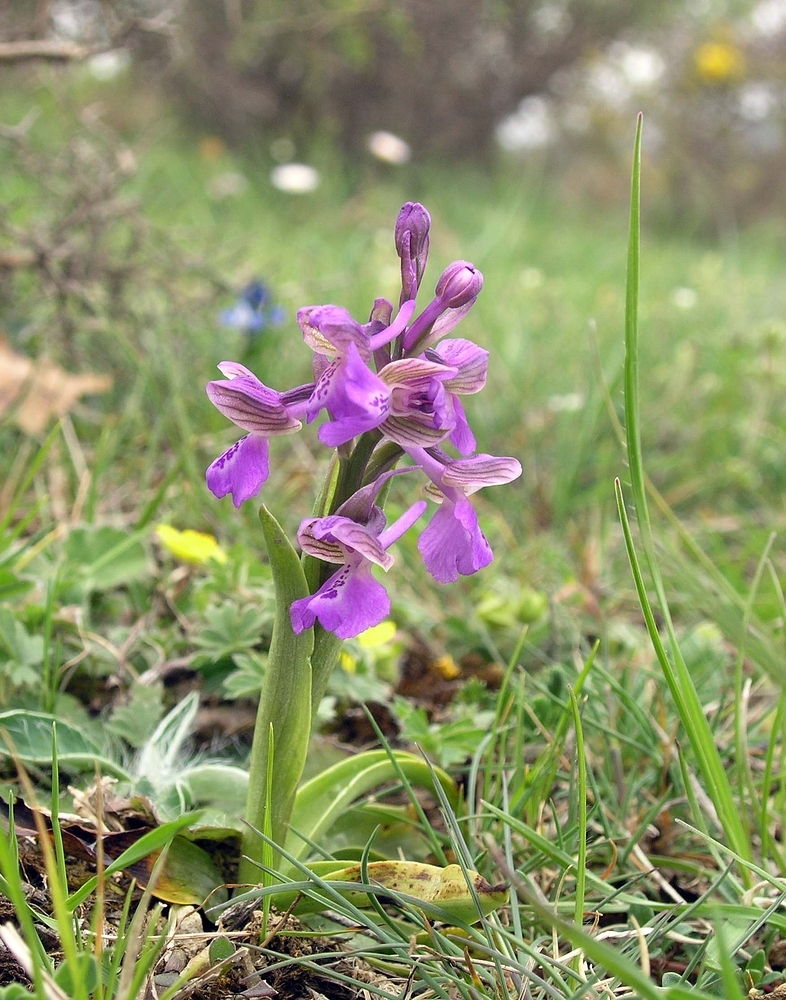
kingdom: Plantae
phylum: Tracheophyta
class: Liliopsida
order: Asparagales
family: Orchidaceae
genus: Anacamptis
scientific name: Anacamptis morio
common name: Green-winged orchid
